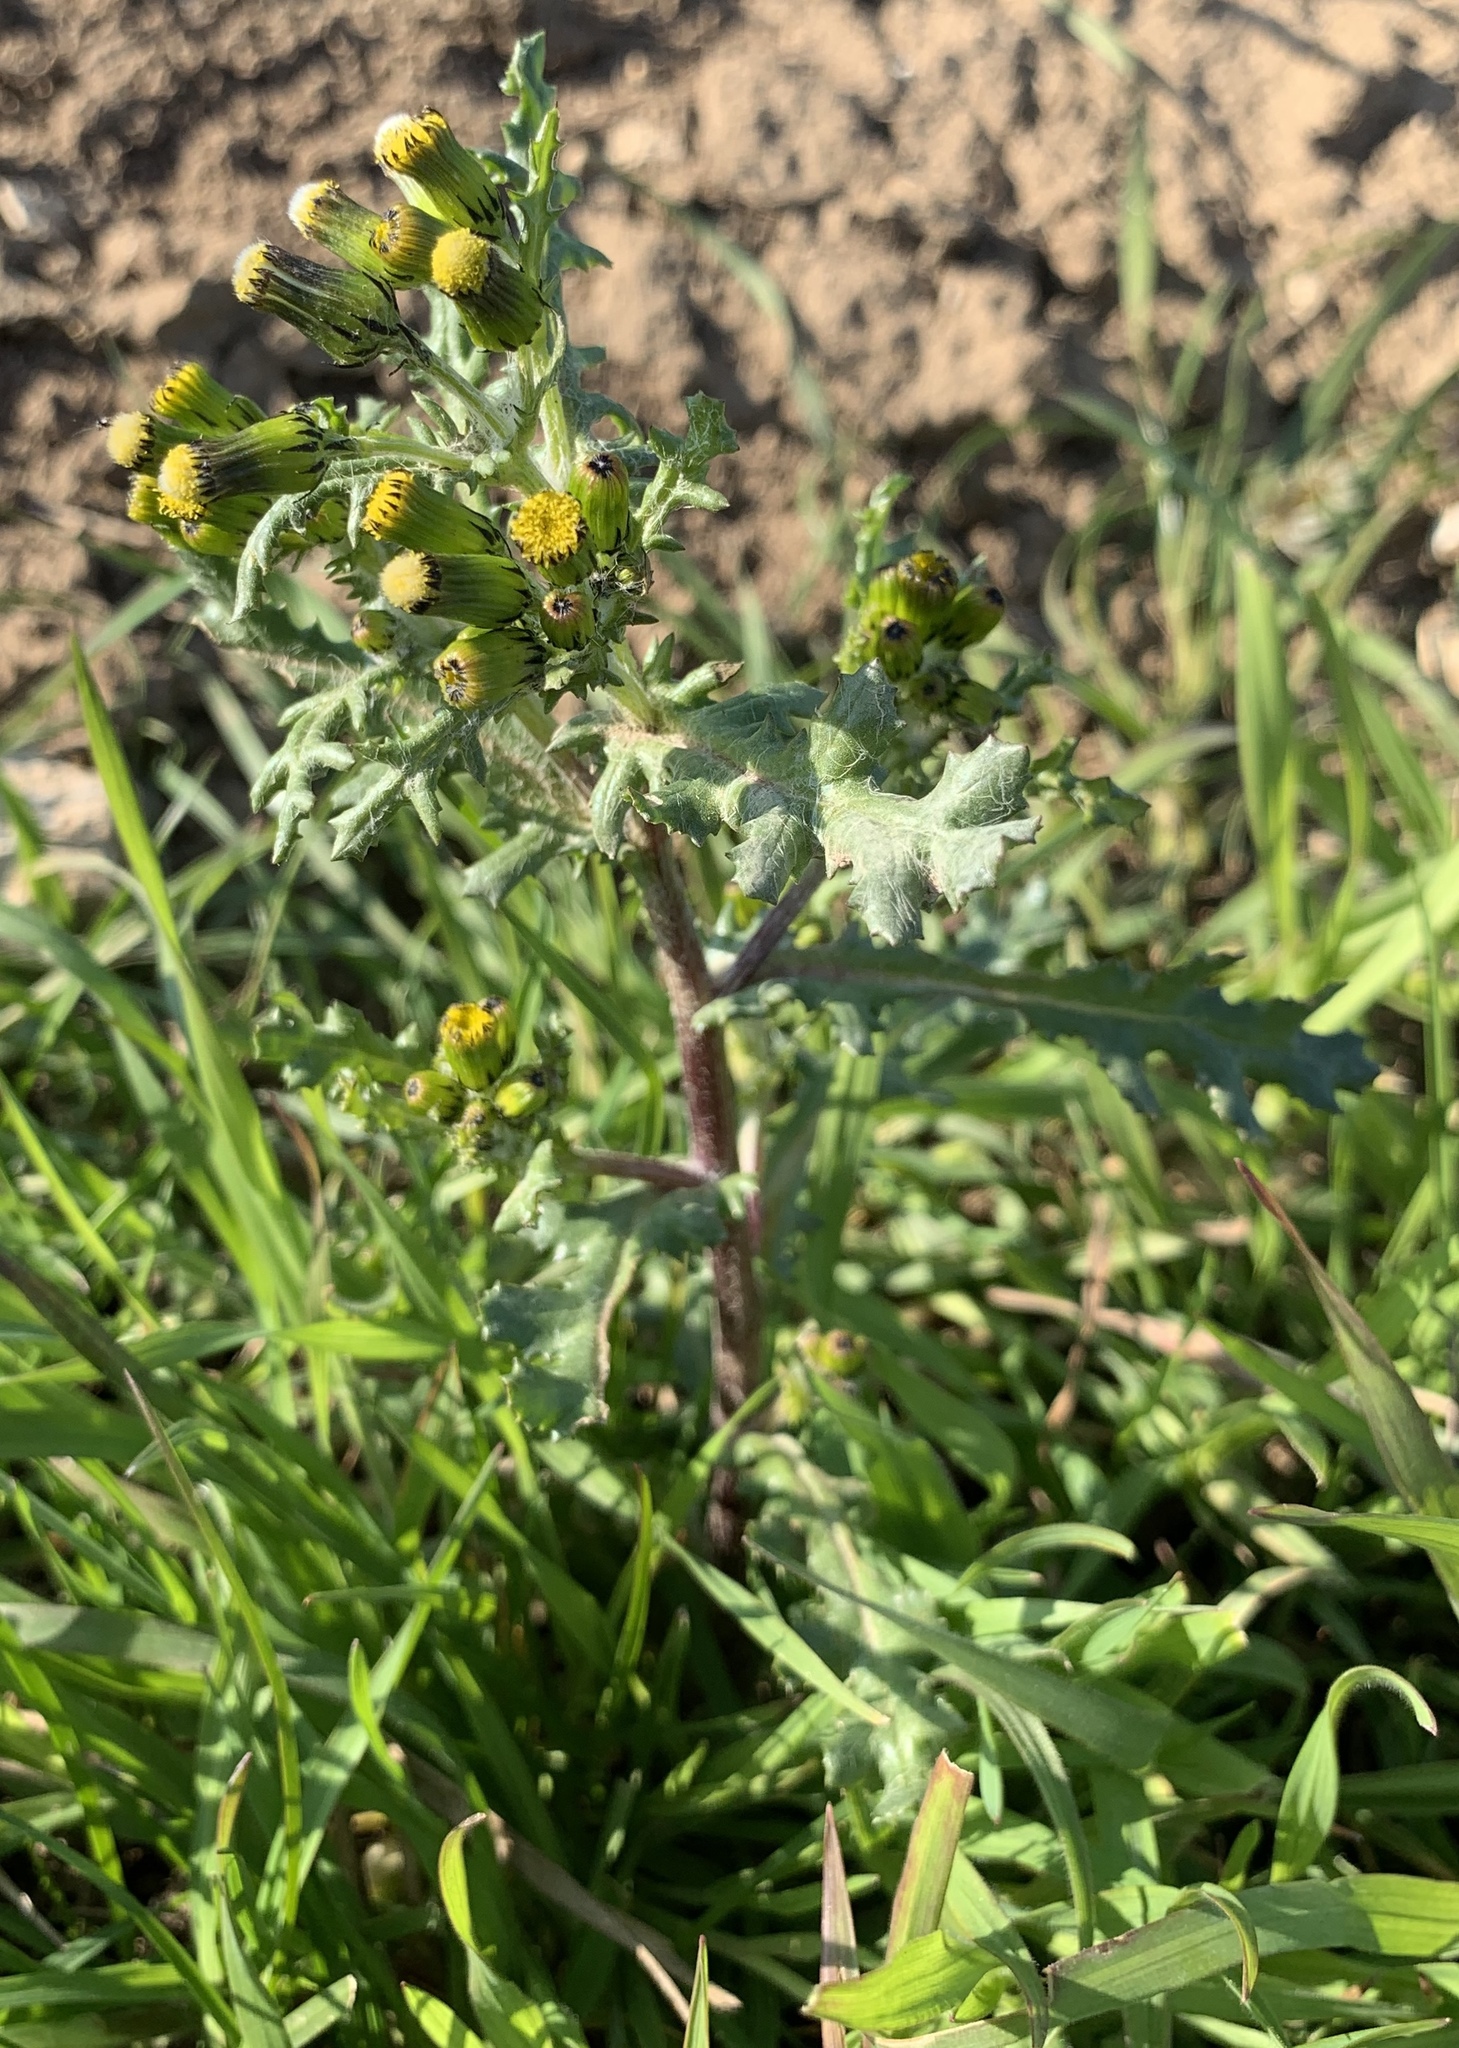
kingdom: Plantae
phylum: Tracheophyta
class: Magnoliopsida
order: Asterales
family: Asteraceae
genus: Senecio
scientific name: Senecio vulgaris
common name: Old-man-in-the-spring
